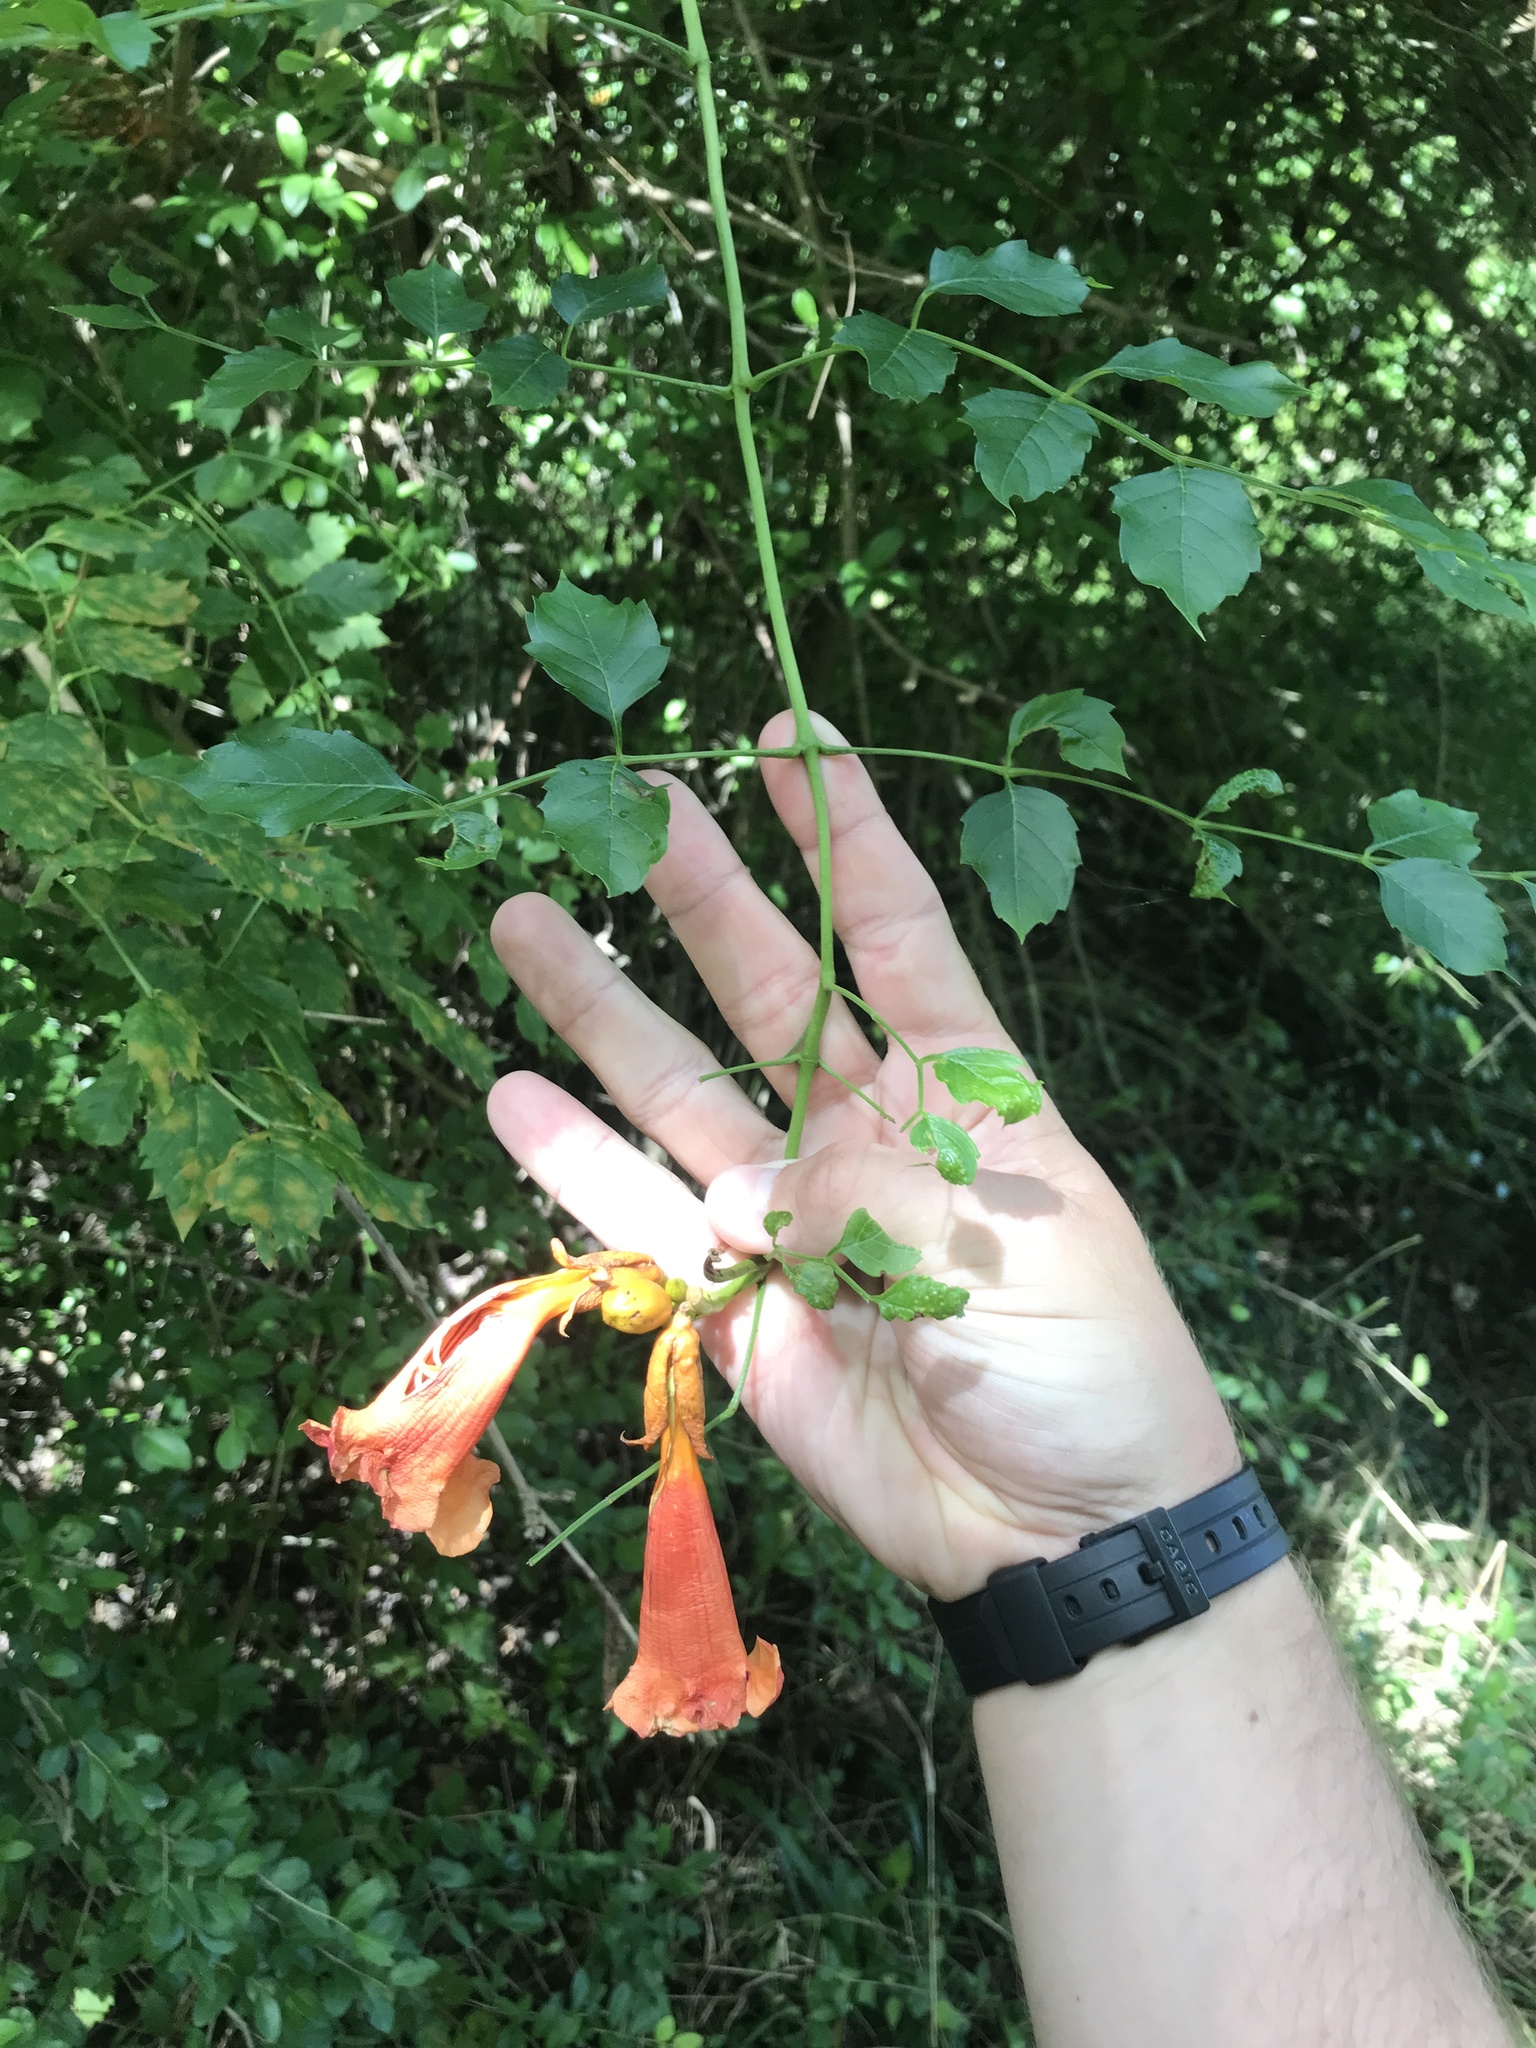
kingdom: Plantae
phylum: Tracheophyta
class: Magnoliopsida
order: Lamiales
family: Bignoniaceae
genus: Campsis
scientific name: Campsis radicans
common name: Trumpet-creeper
